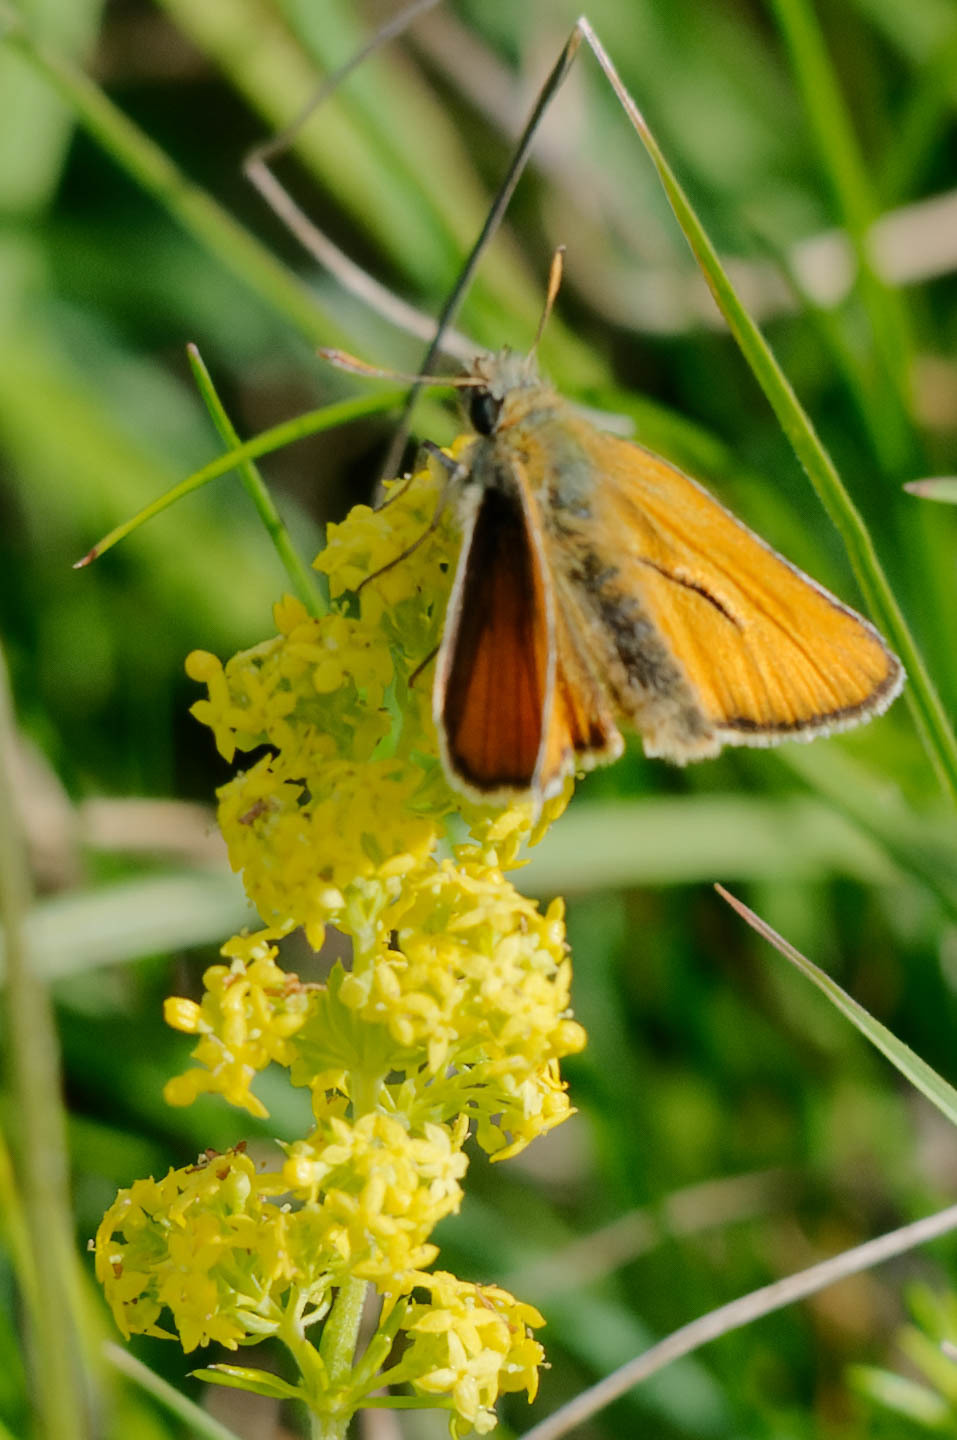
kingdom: Animalia
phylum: Arthropoda
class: Insecta
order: Lepidoptera
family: Hesperiidae
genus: Thymelicus
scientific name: Thymelicus sylvestris
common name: Small skipper
